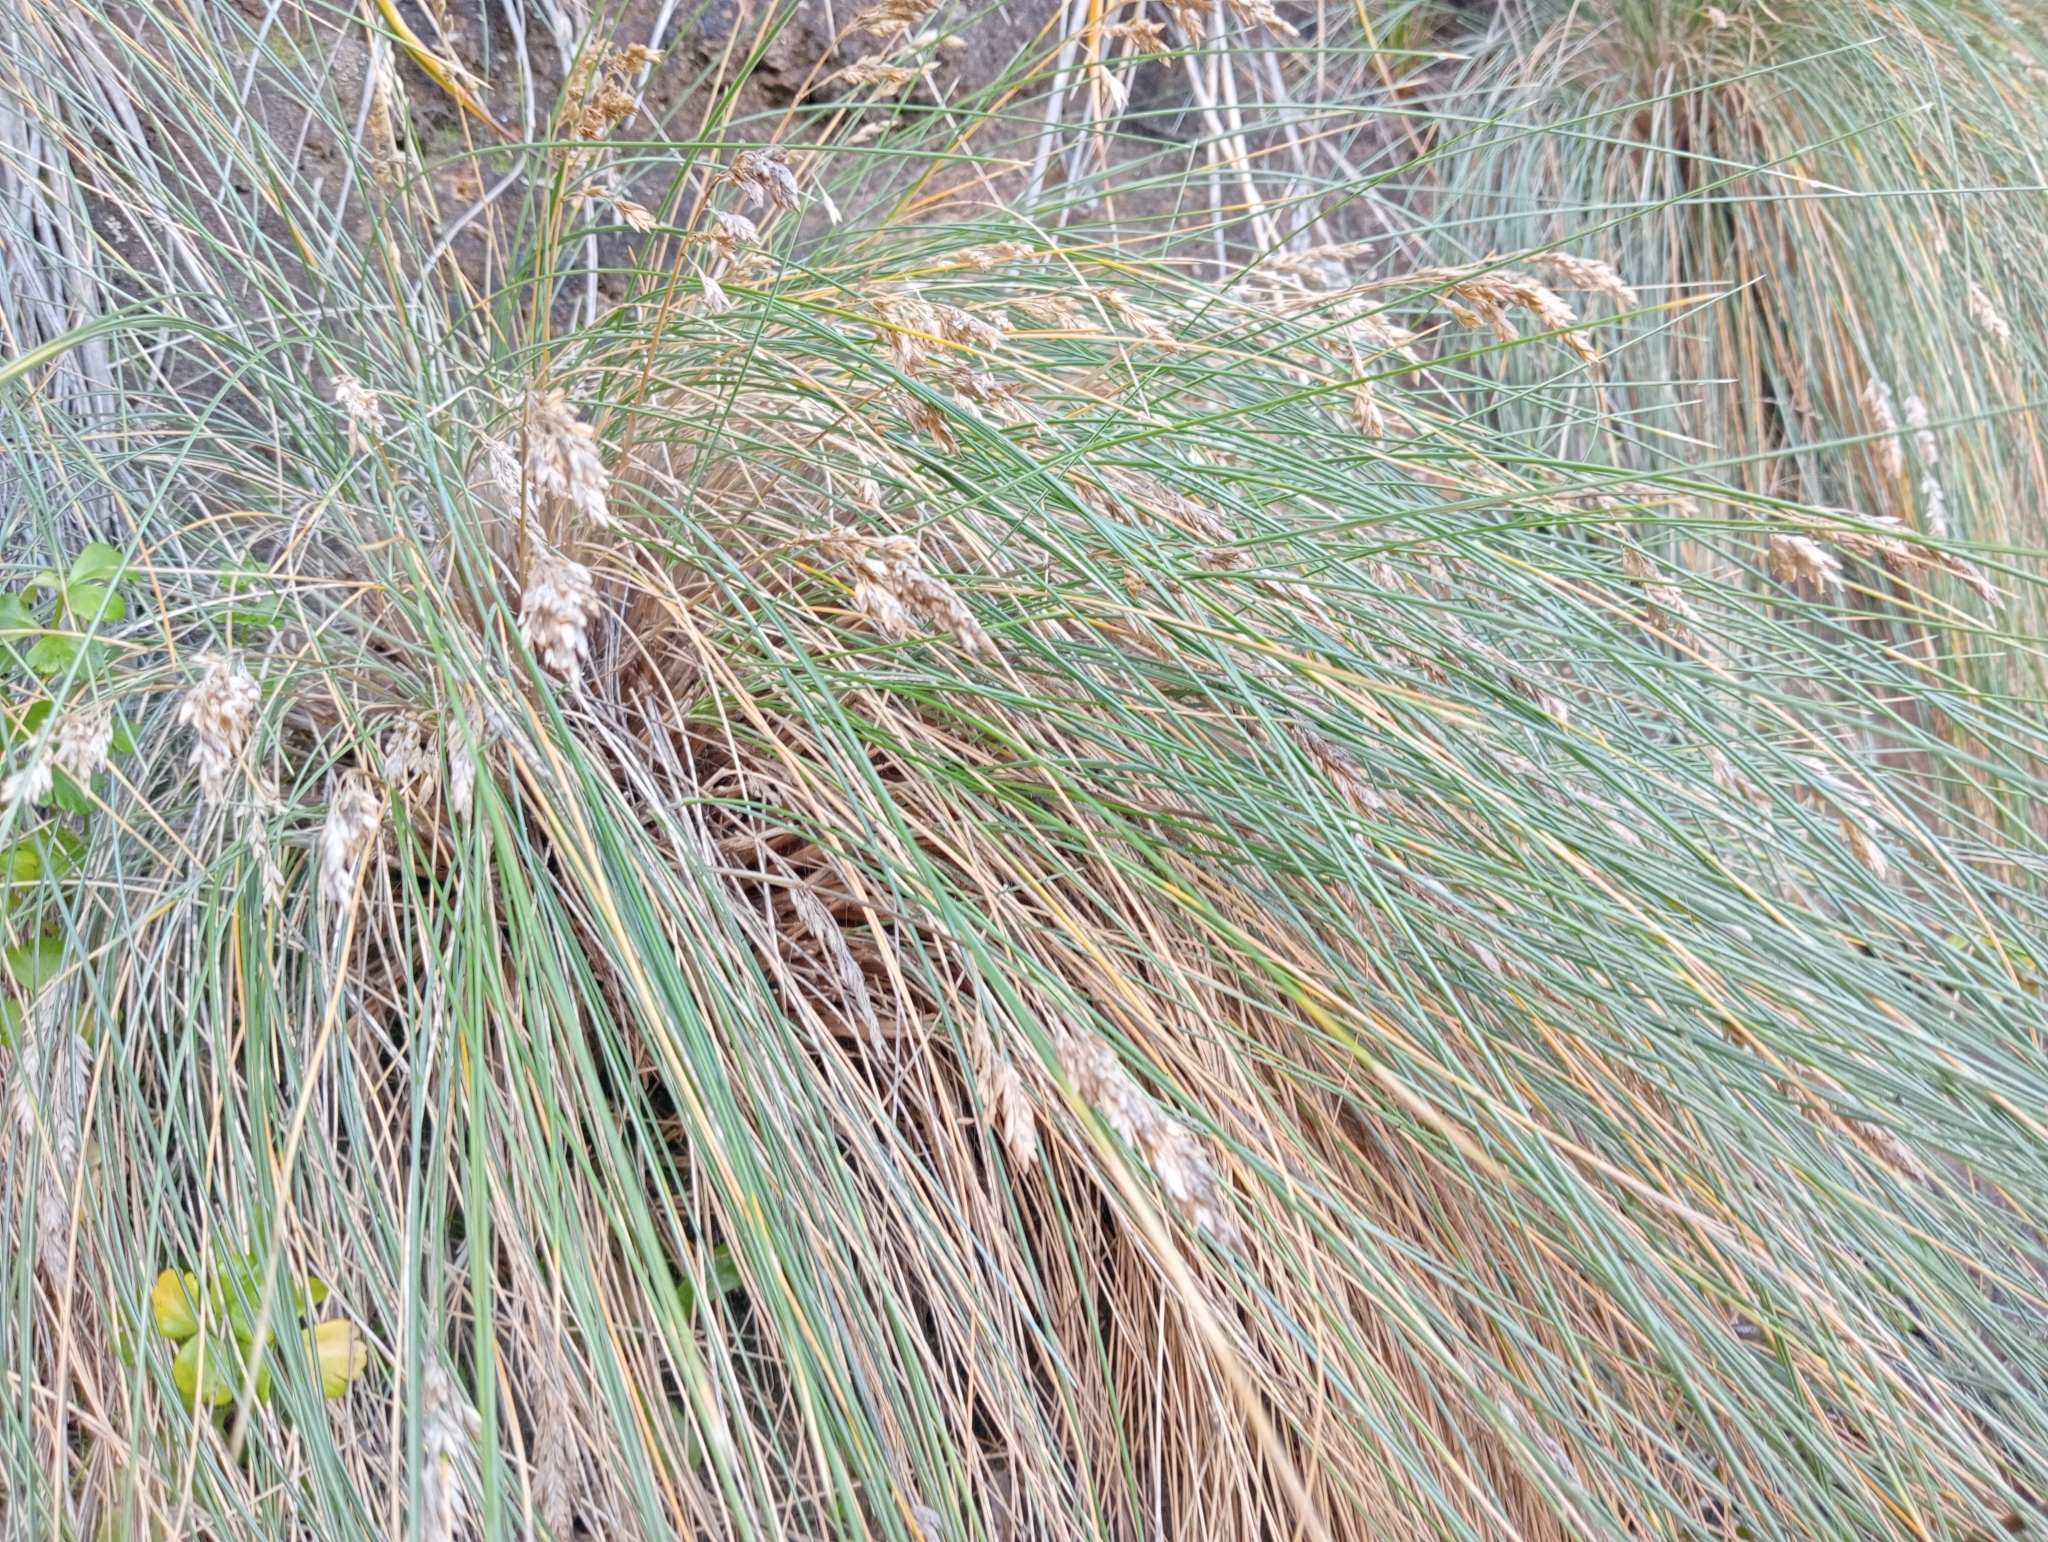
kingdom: Plantae
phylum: Tracheophyta
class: Liliopsida
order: Poales
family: Poaceae
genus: Poa
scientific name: Poa astonii
